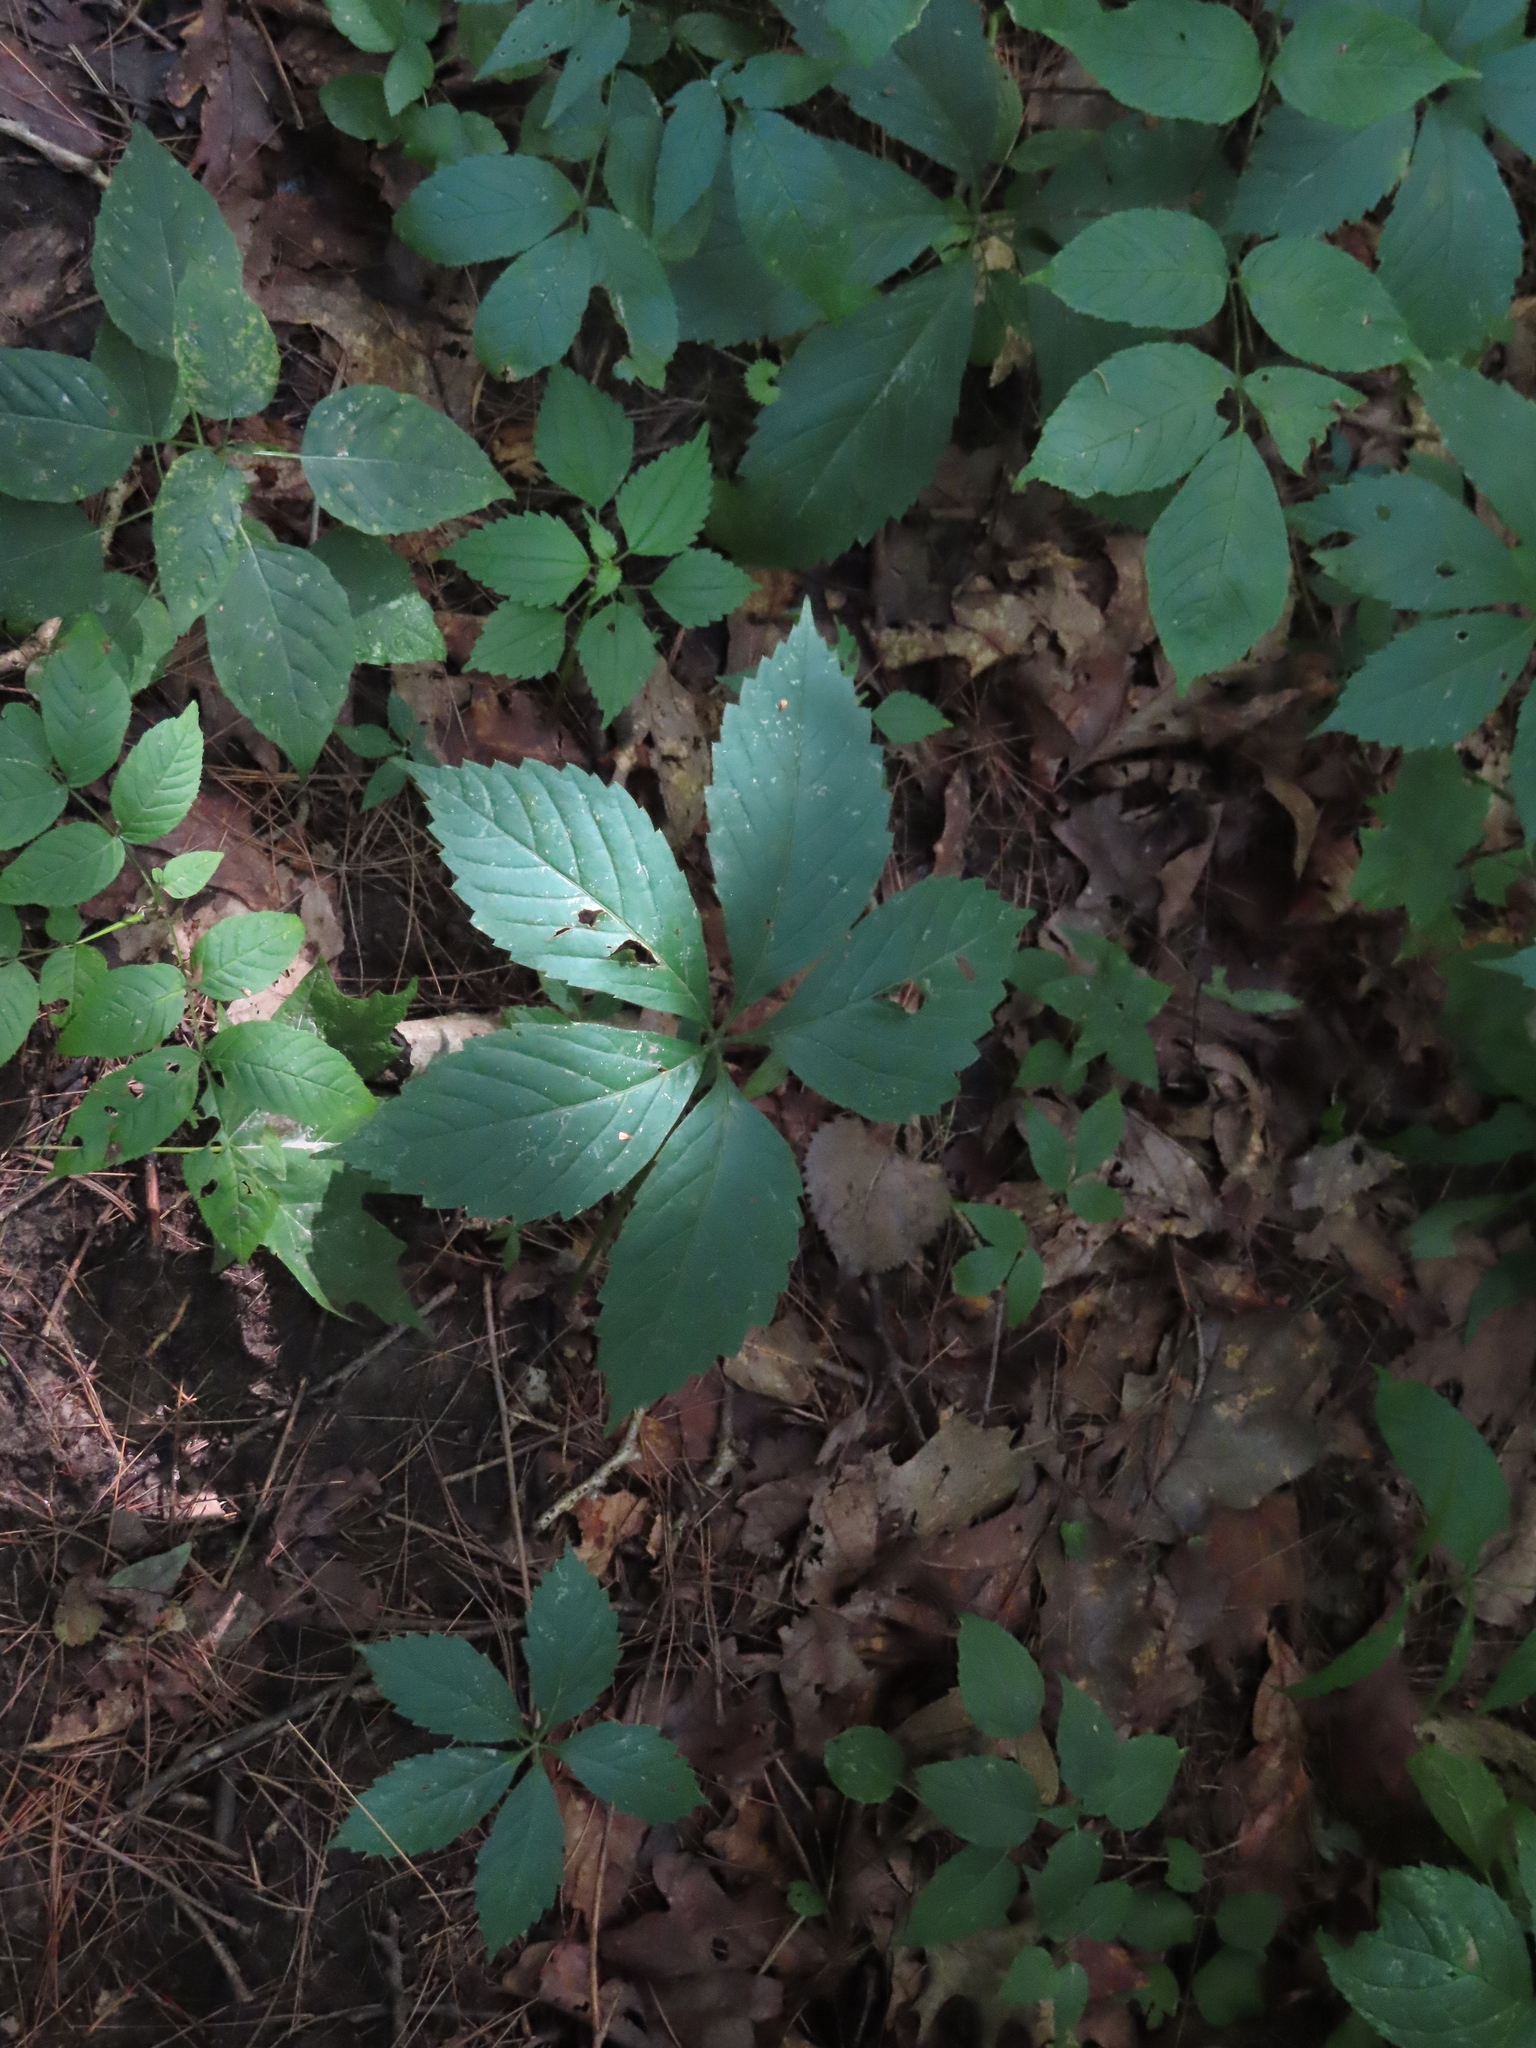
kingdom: Plantae
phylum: Tracheophyta
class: Magnoliopsida
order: Vitales
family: Vitaceae
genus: Parthenocissus
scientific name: Parthenocissus quinquefolia
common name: Virginia-creeper
